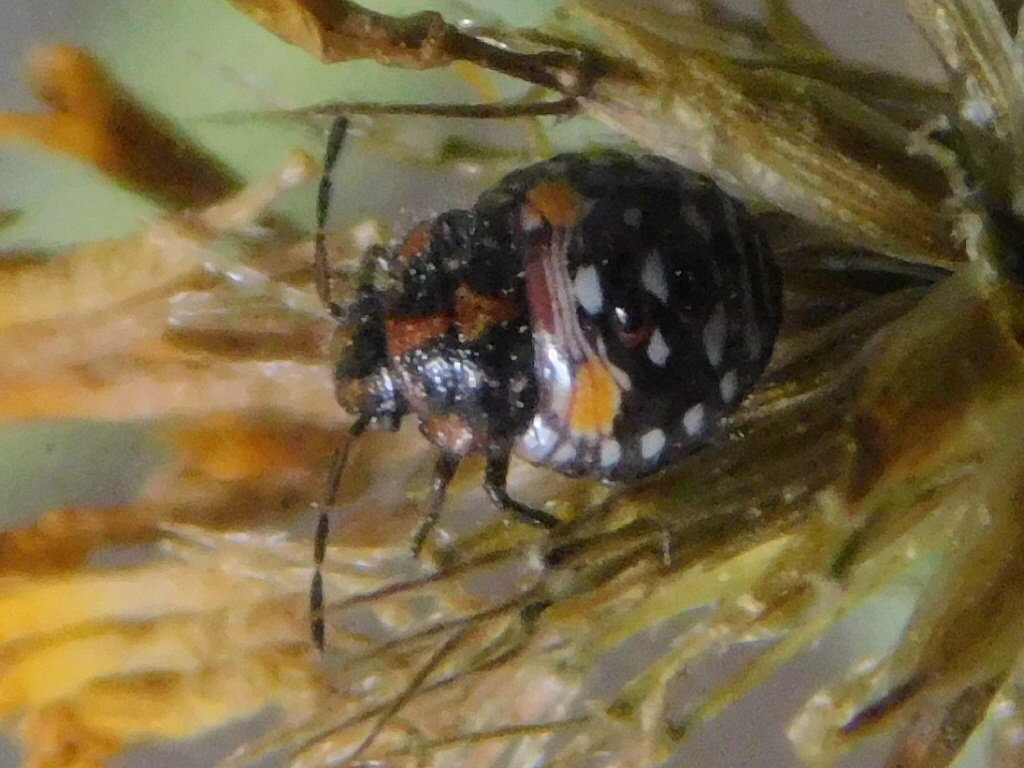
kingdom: Animalia
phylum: Arthropoda
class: Insecta
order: Hemiptera
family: Pentatomidae
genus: Thyanta
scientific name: Thyanta perditor
